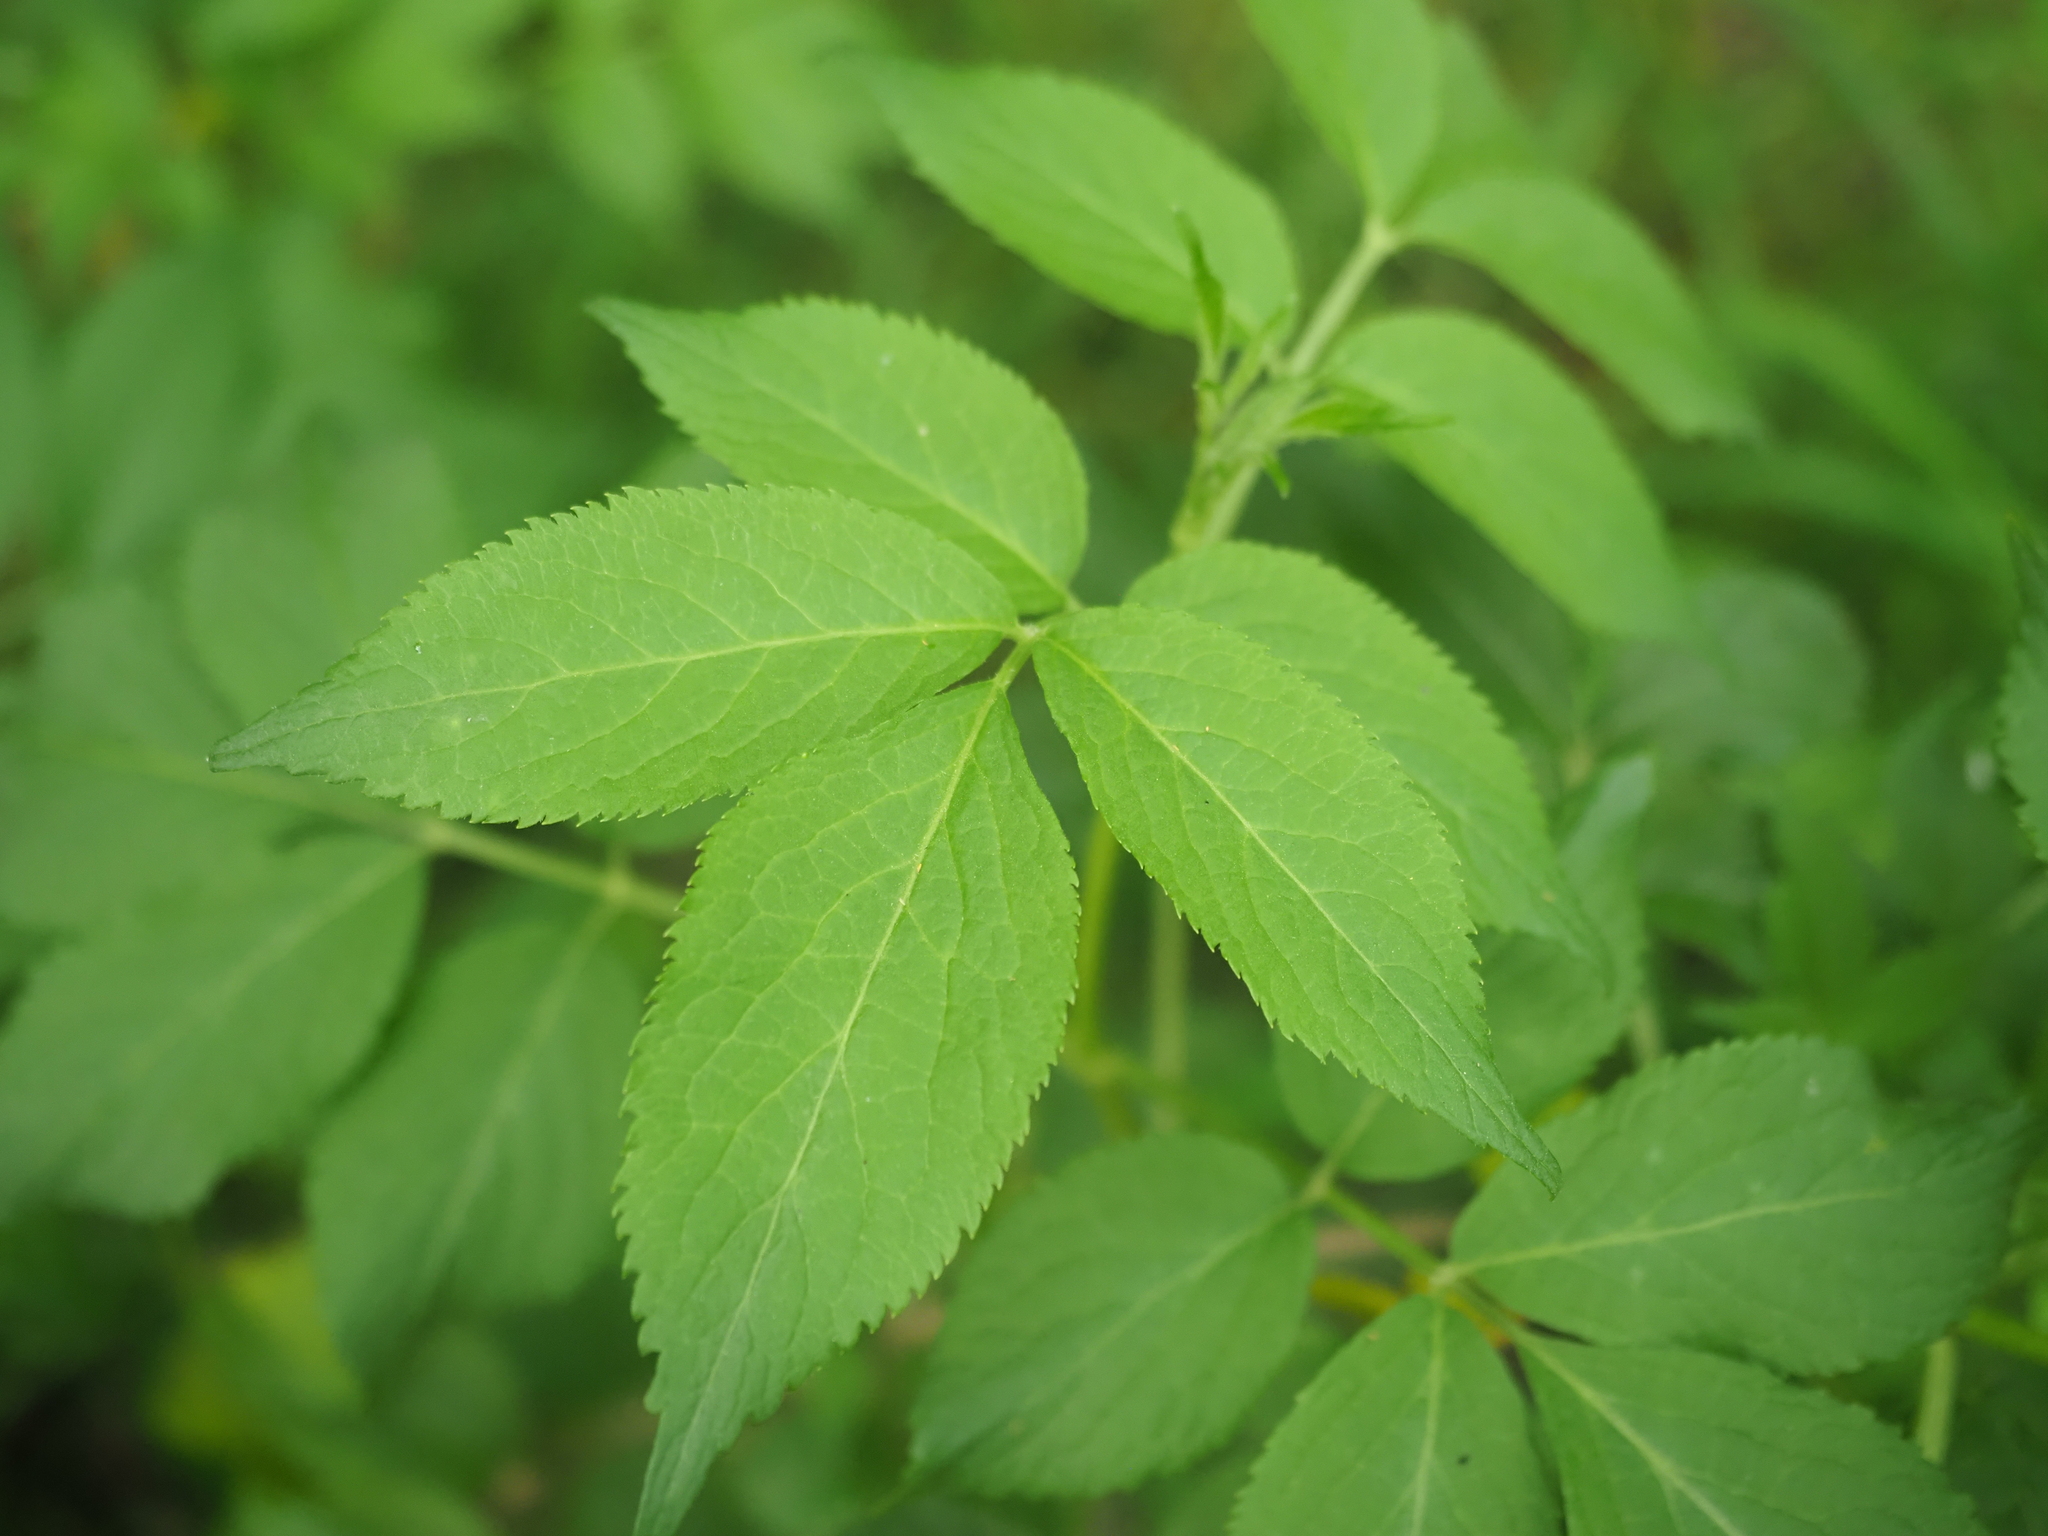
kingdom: Plantae
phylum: Tracheophyta
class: Magnoliopsida
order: Dipsacales
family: Viburnaceae
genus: Sambucus
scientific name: Sambucus nigra
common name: Elder
